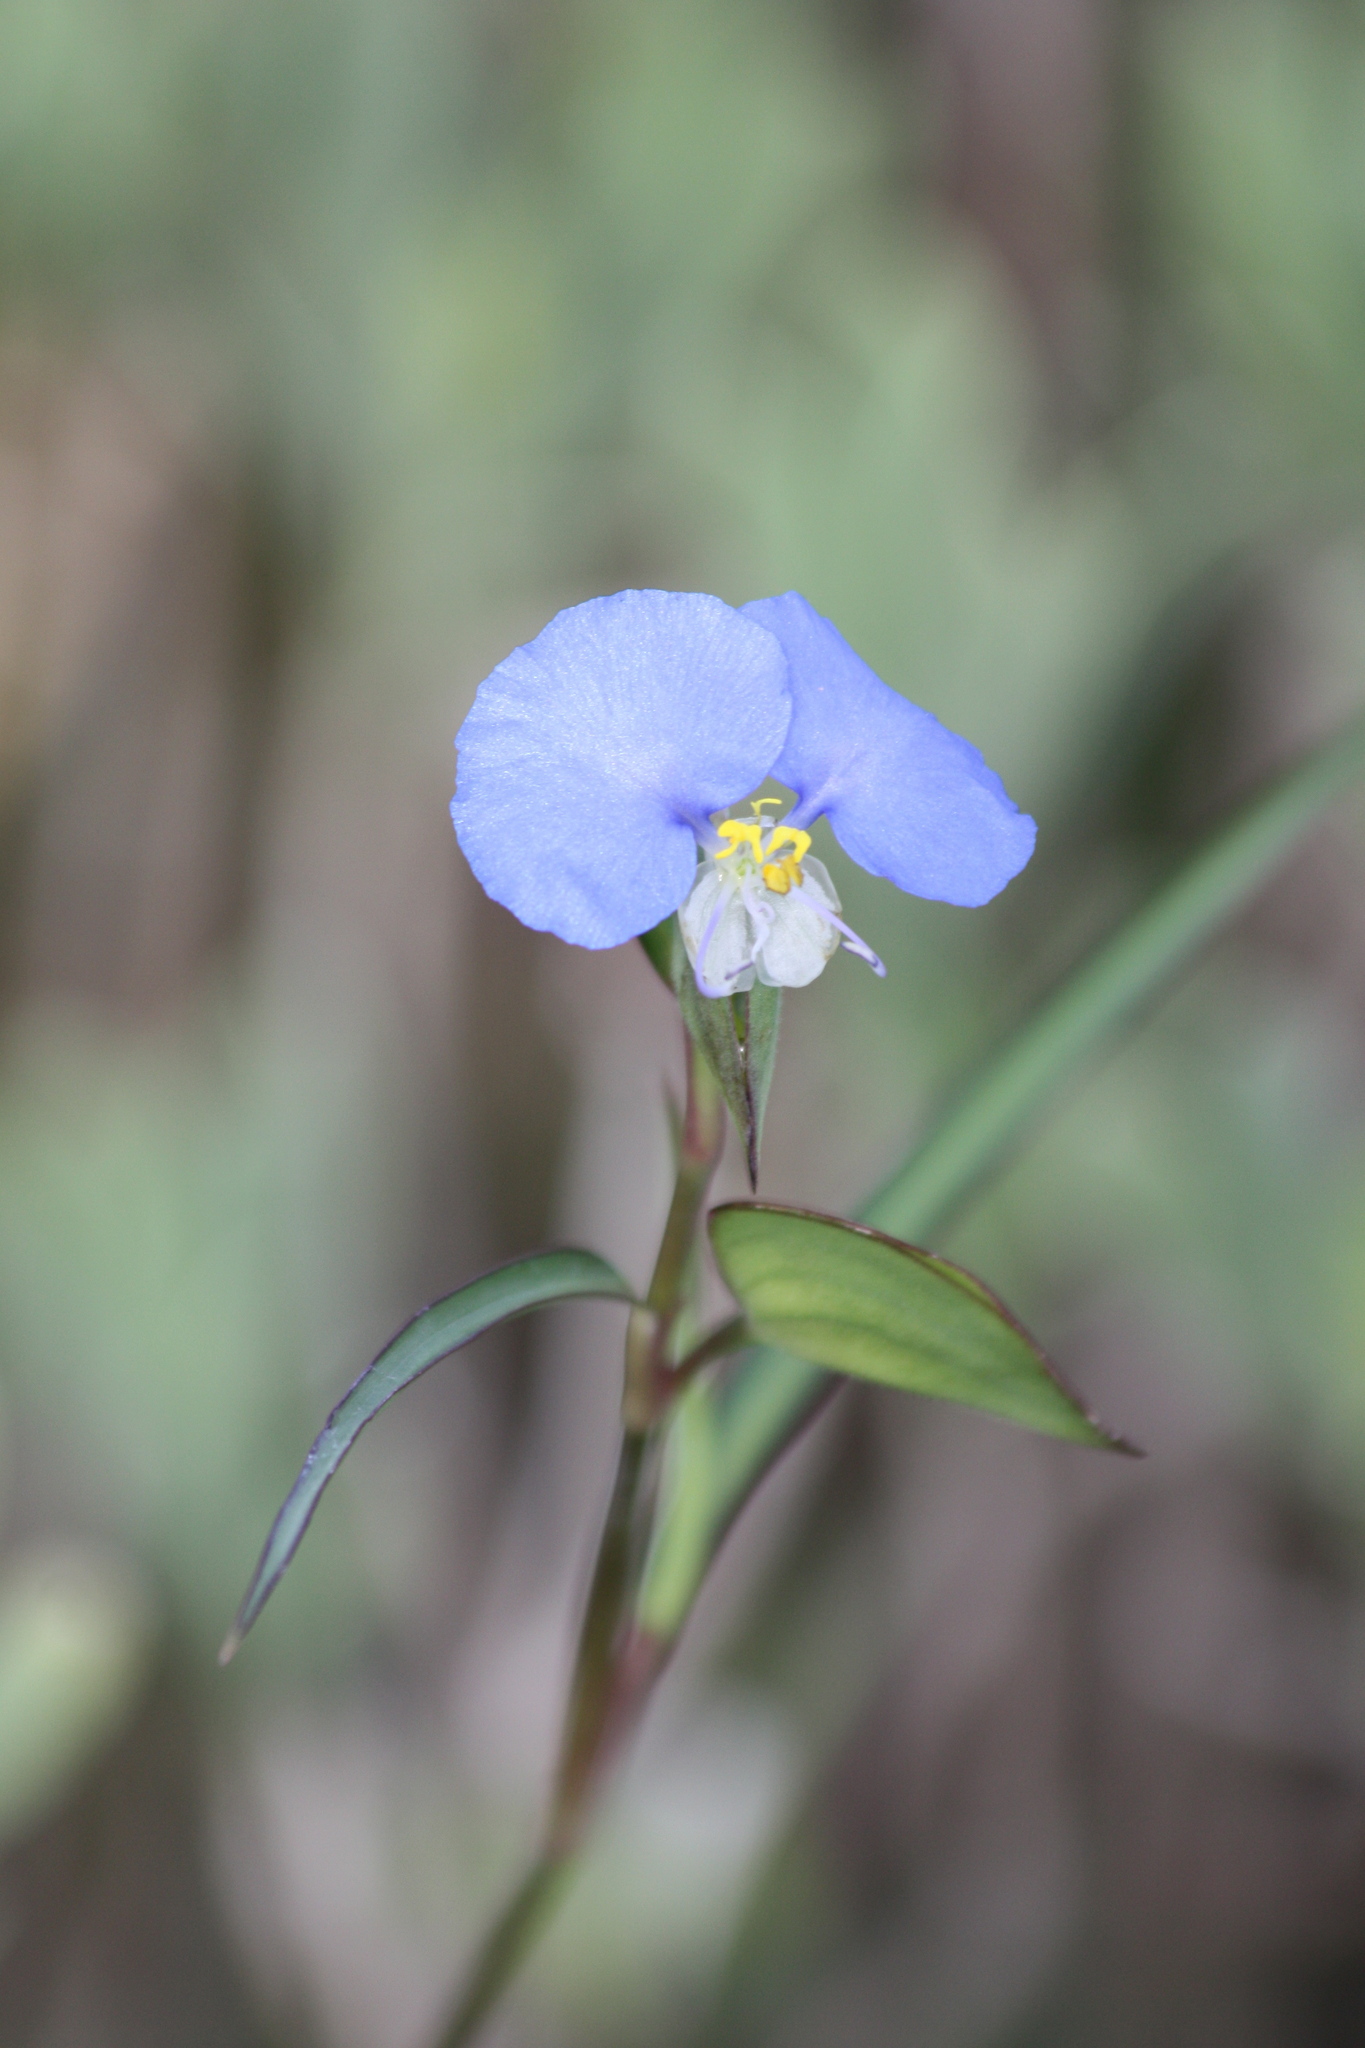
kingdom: Plantae
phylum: Tracheophyta
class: Liliopsida
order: Commelinales
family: Commelinaceae
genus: Commelina
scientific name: Commelina erecta
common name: Blousel blommetjie
